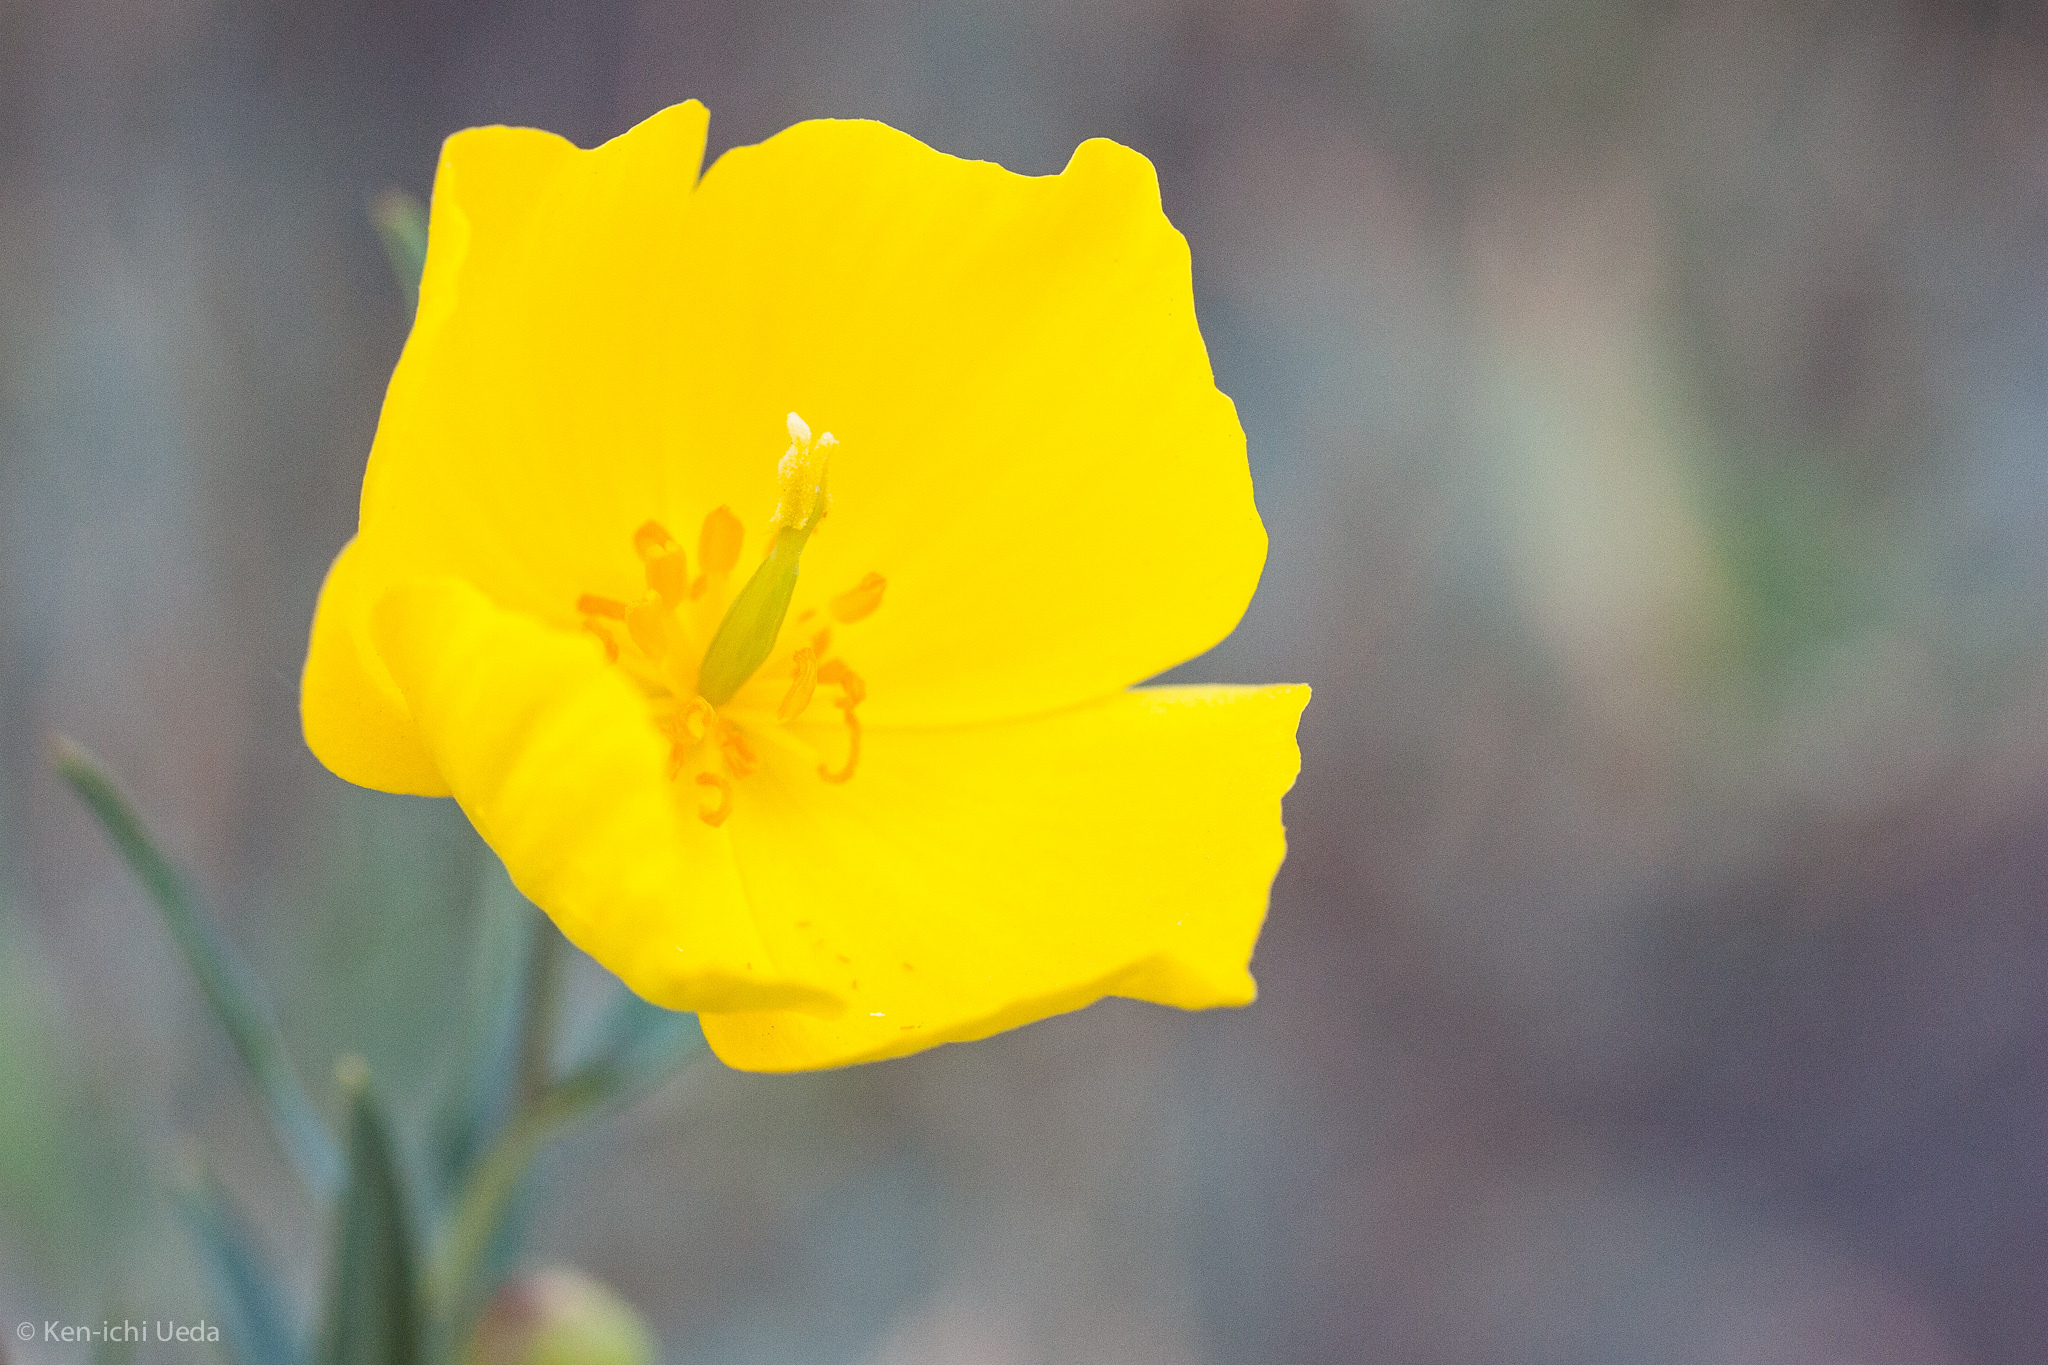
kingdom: Plantae
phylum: Tracheophyta
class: Magnoliopsida
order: Ranunculales
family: Papaveraceae
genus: Dendromecon
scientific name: Dendromecon rigida
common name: Tree poppy
